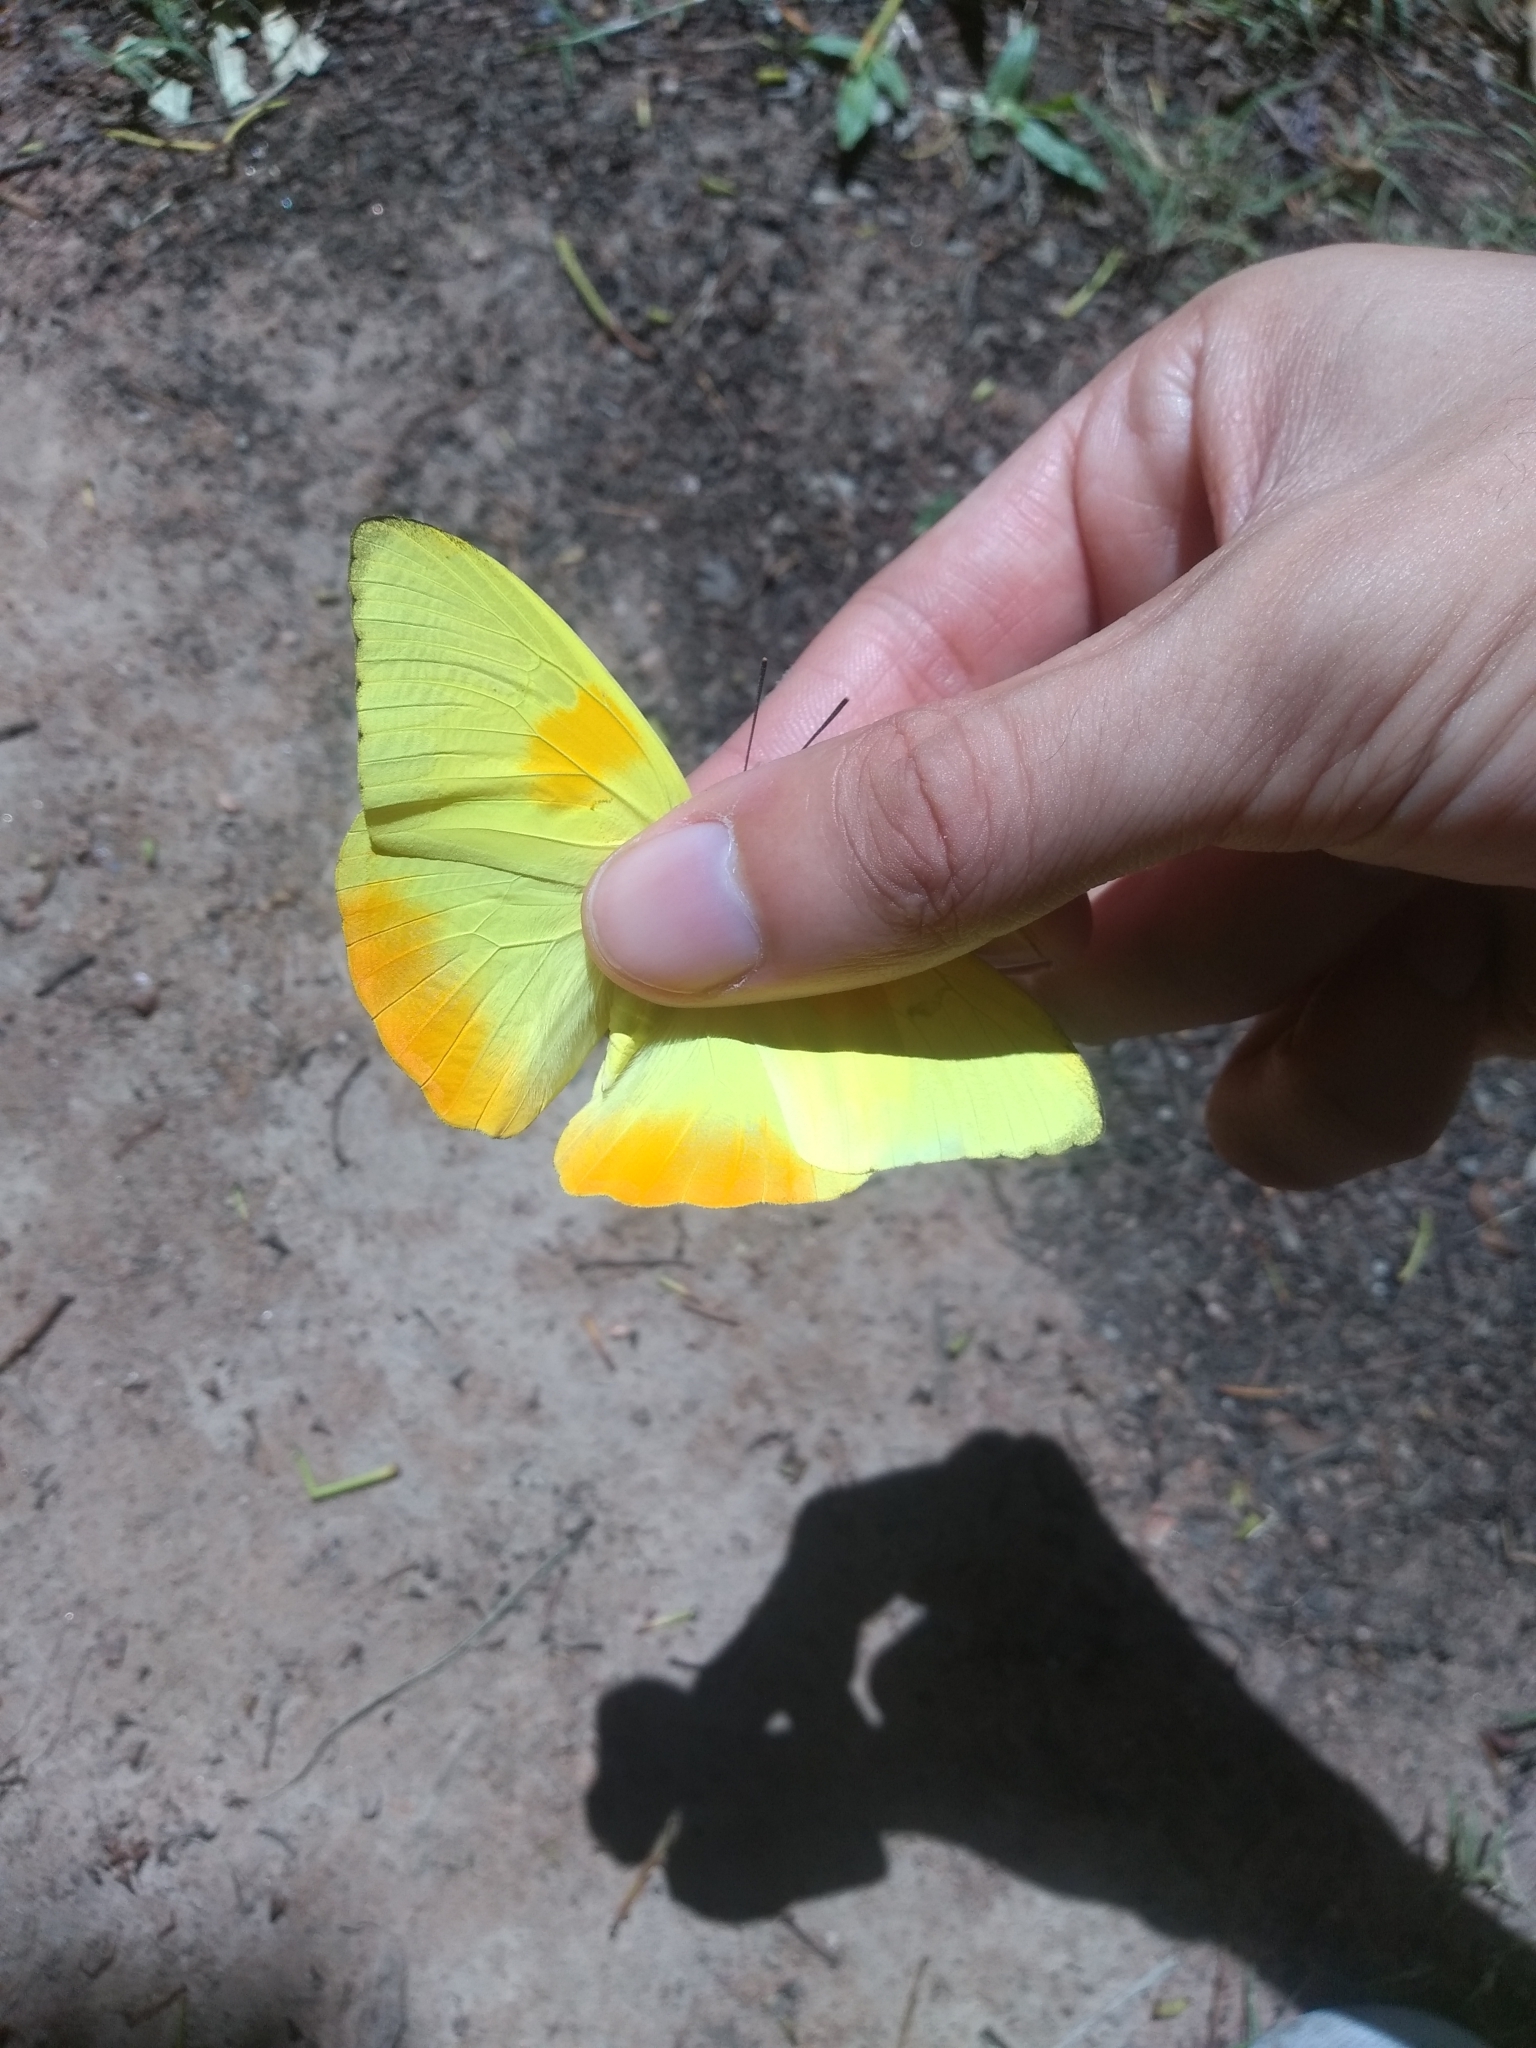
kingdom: Animalia
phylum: Arthropoda
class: Insecta
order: Lepidoptera
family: Pieridae
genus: Phoebis
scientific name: Phoebis philea
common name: Orange-barred giant sulphur
